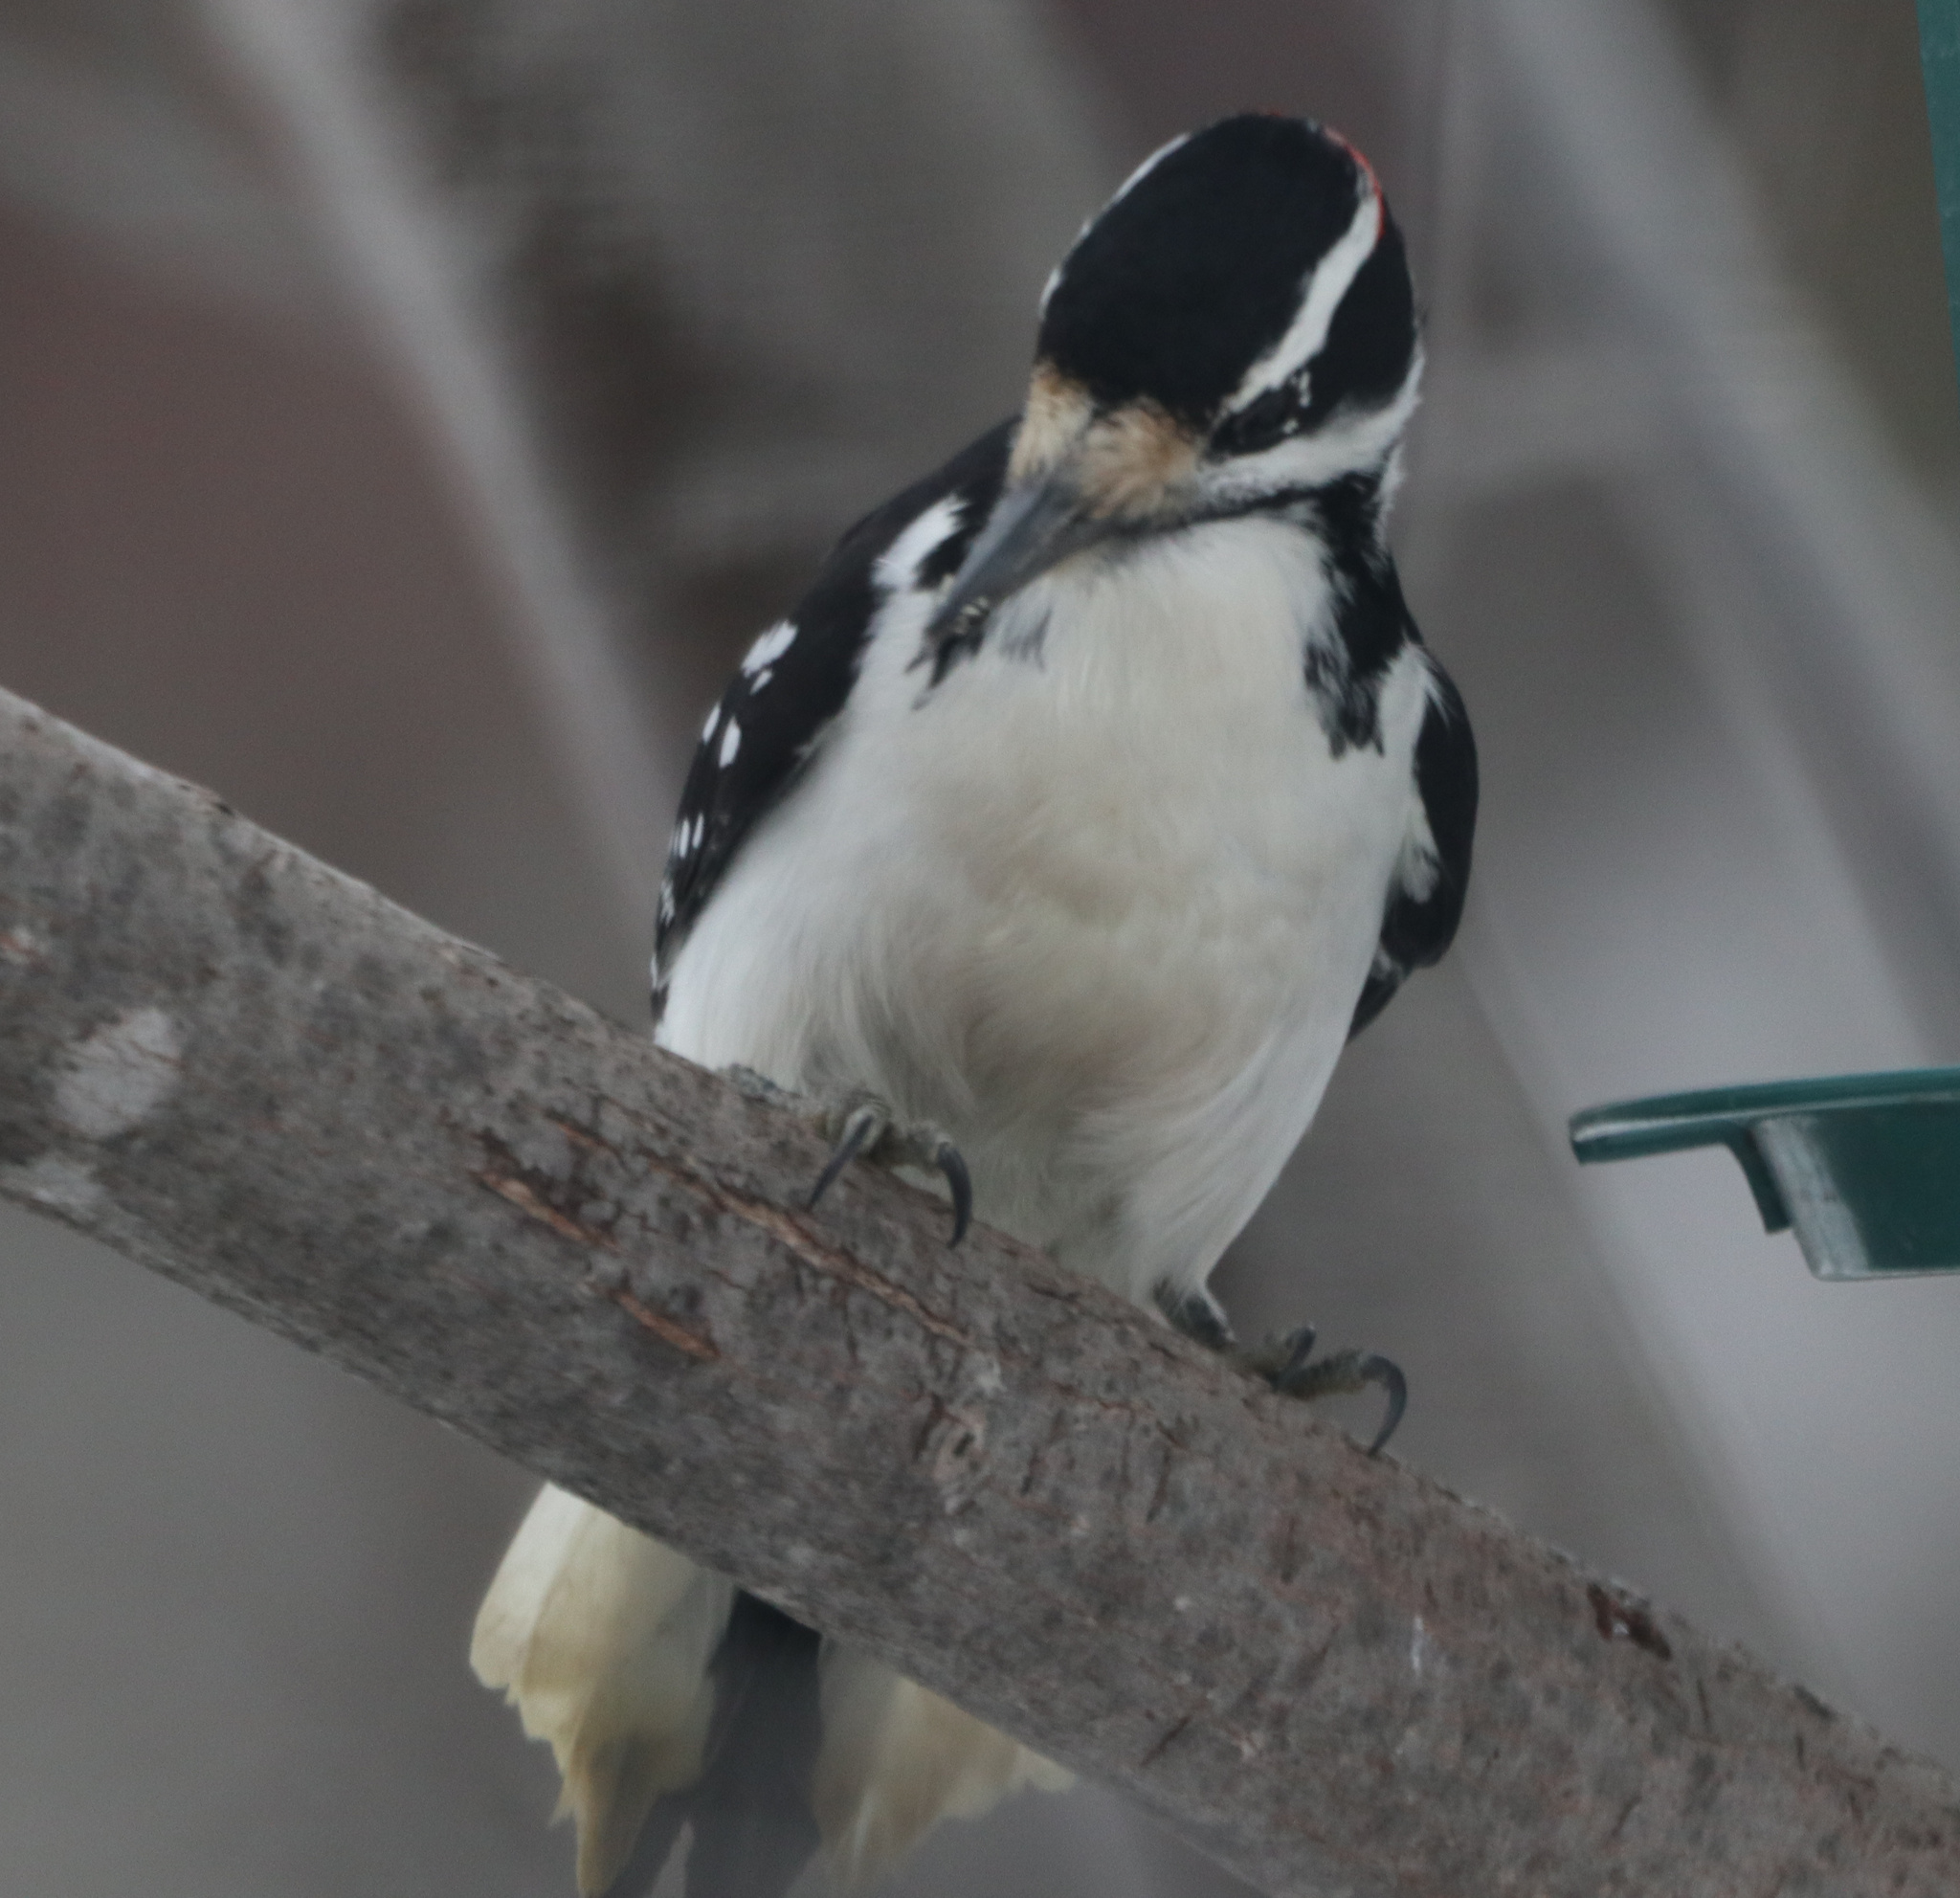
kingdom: Animalia
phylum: Chordata
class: Aves
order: Piciformes
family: Picidae
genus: Leuconotopicus
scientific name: Leuconotopicus villosus
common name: Hairy woodpecker
